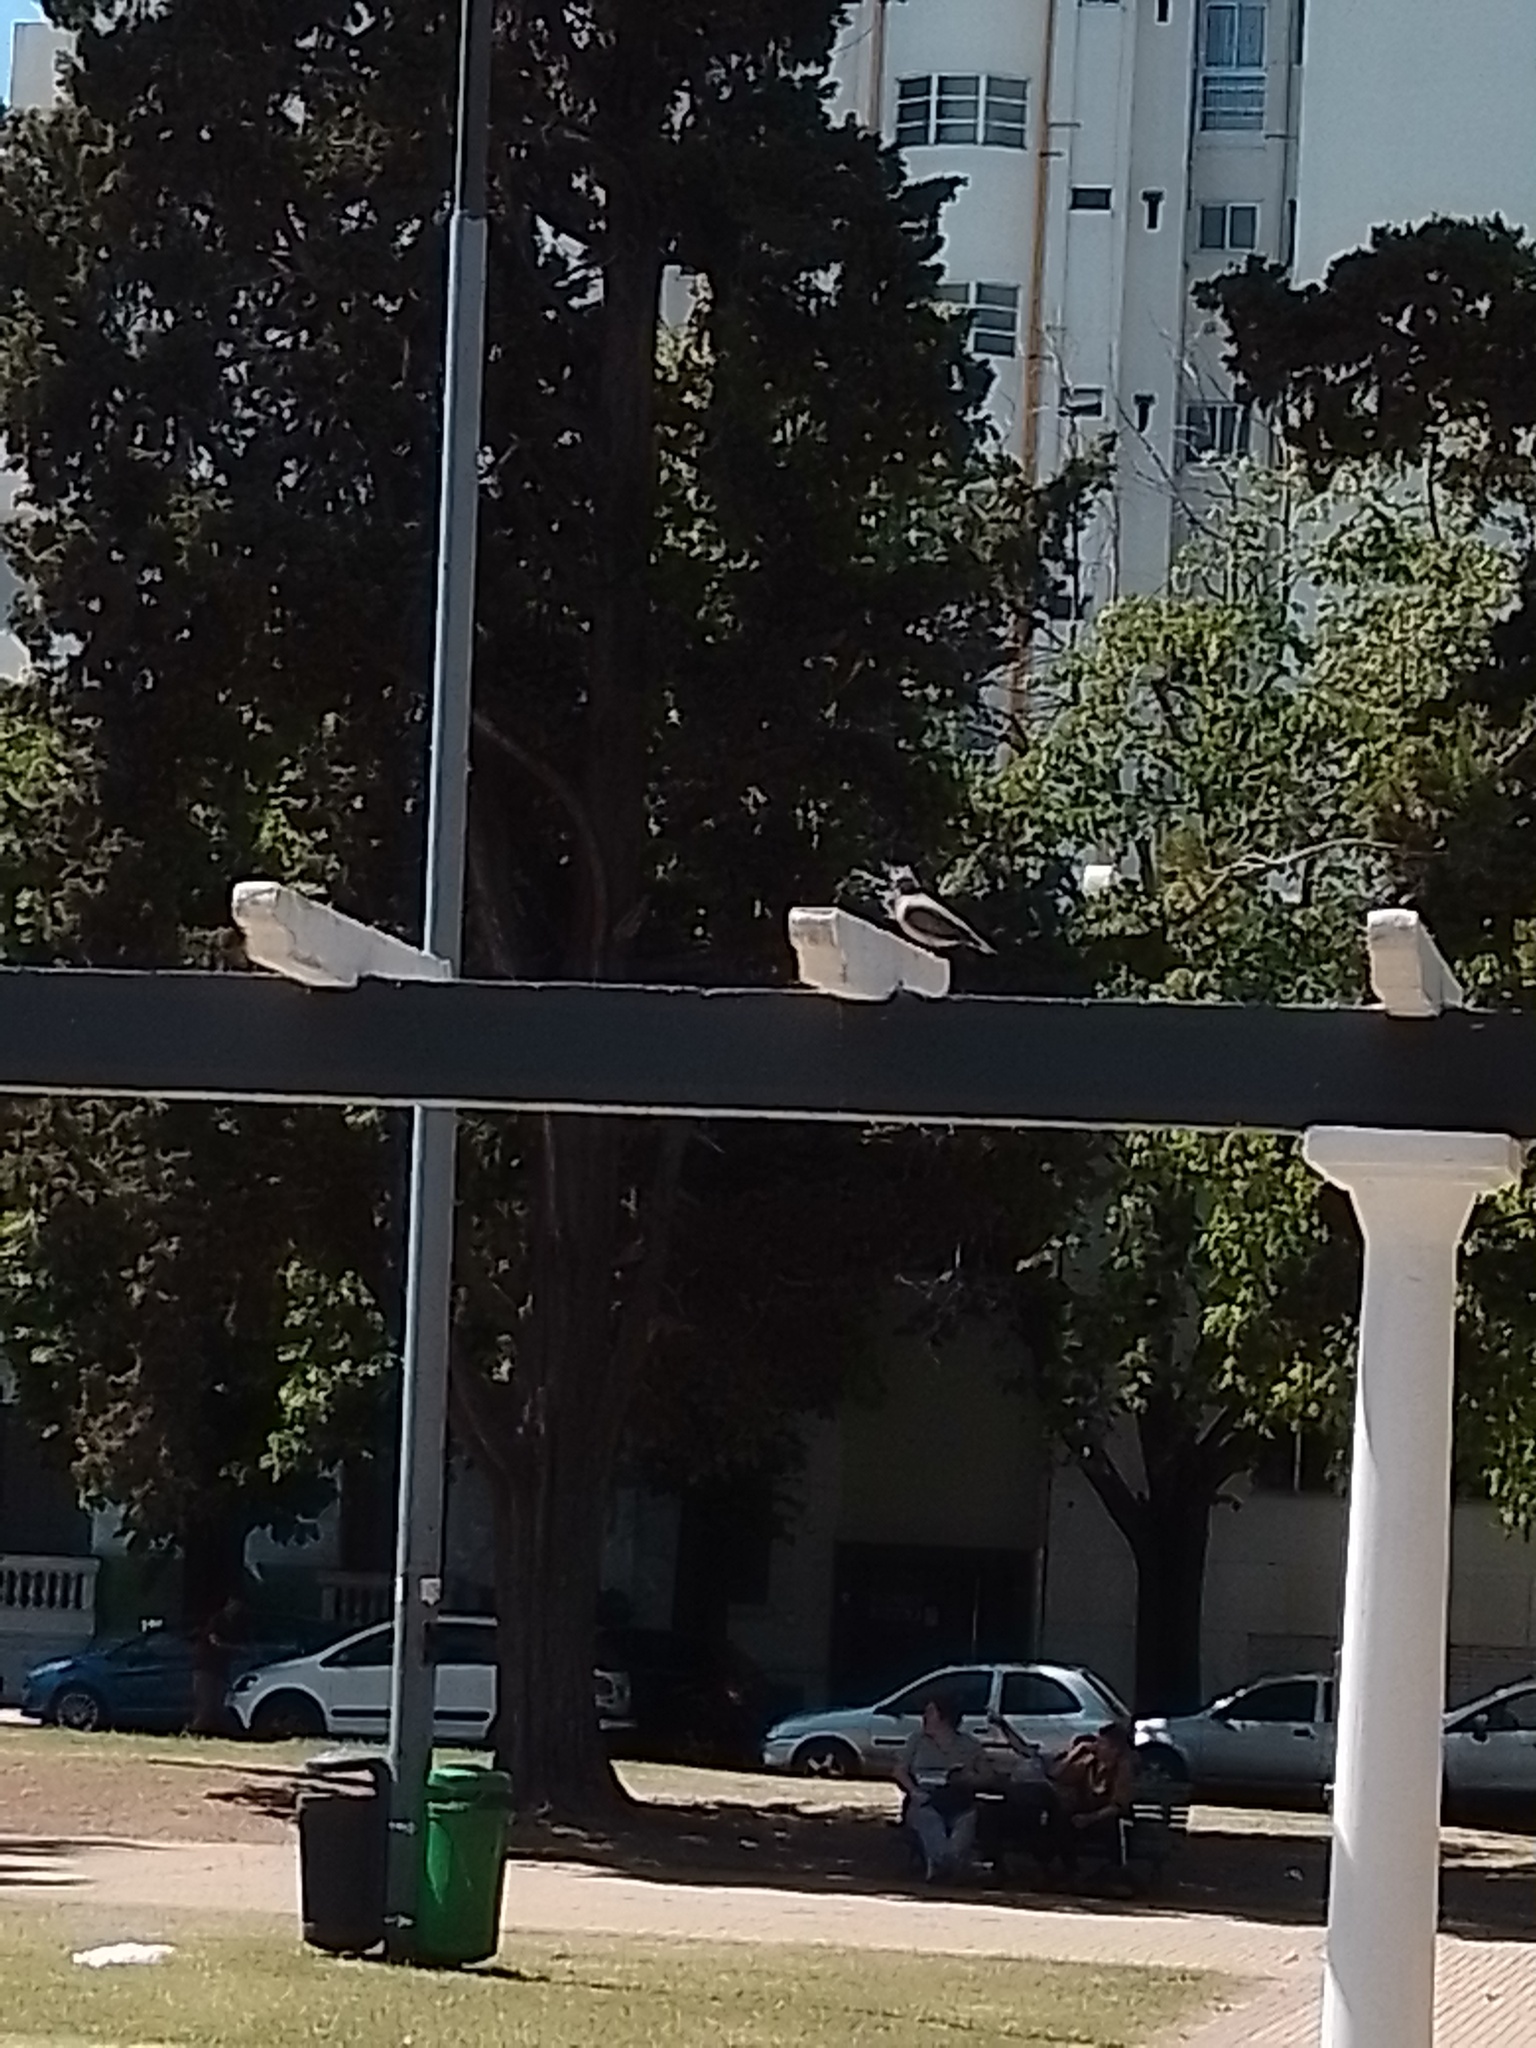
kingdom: Animalia
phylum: Chordata
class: Aves
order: Columbiformes
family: Columbidae
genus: Zenaida
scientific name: Zenaida auriculata
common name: Eared dove
